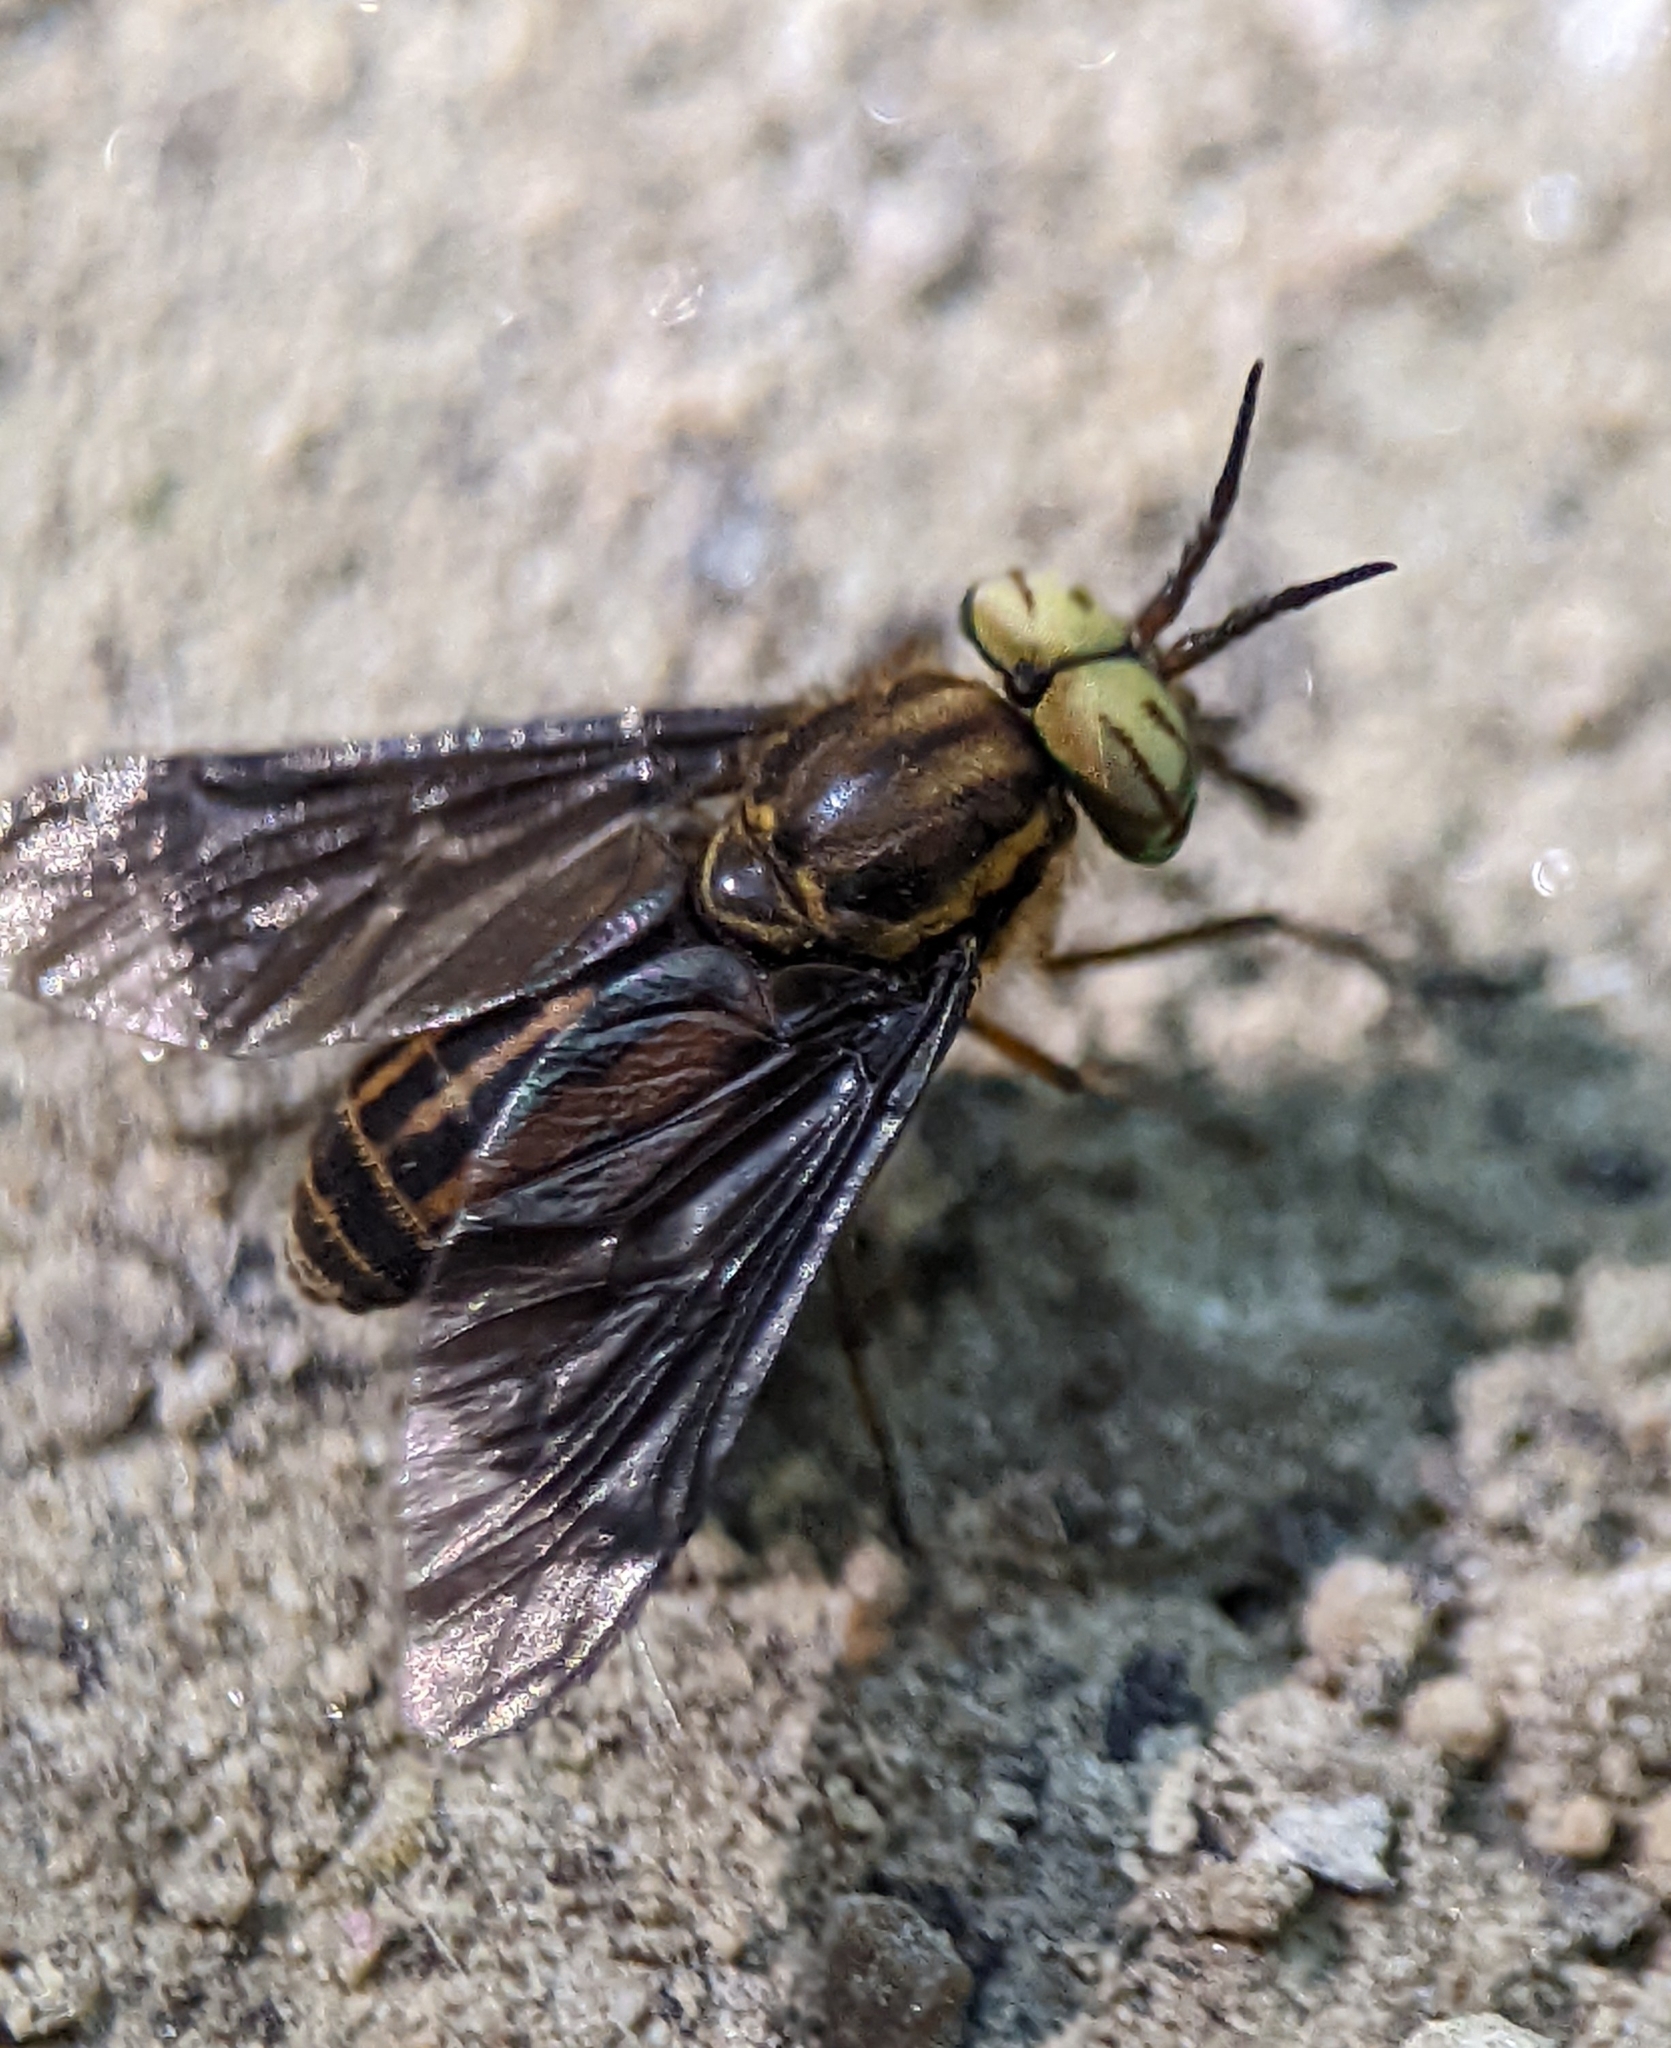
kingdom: Animalia
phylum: Arthropoda
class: Insecta
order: Diptera
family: Tabanidae
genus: Chrysops
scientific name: Chrysops vittatus
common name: Striped deer fly
